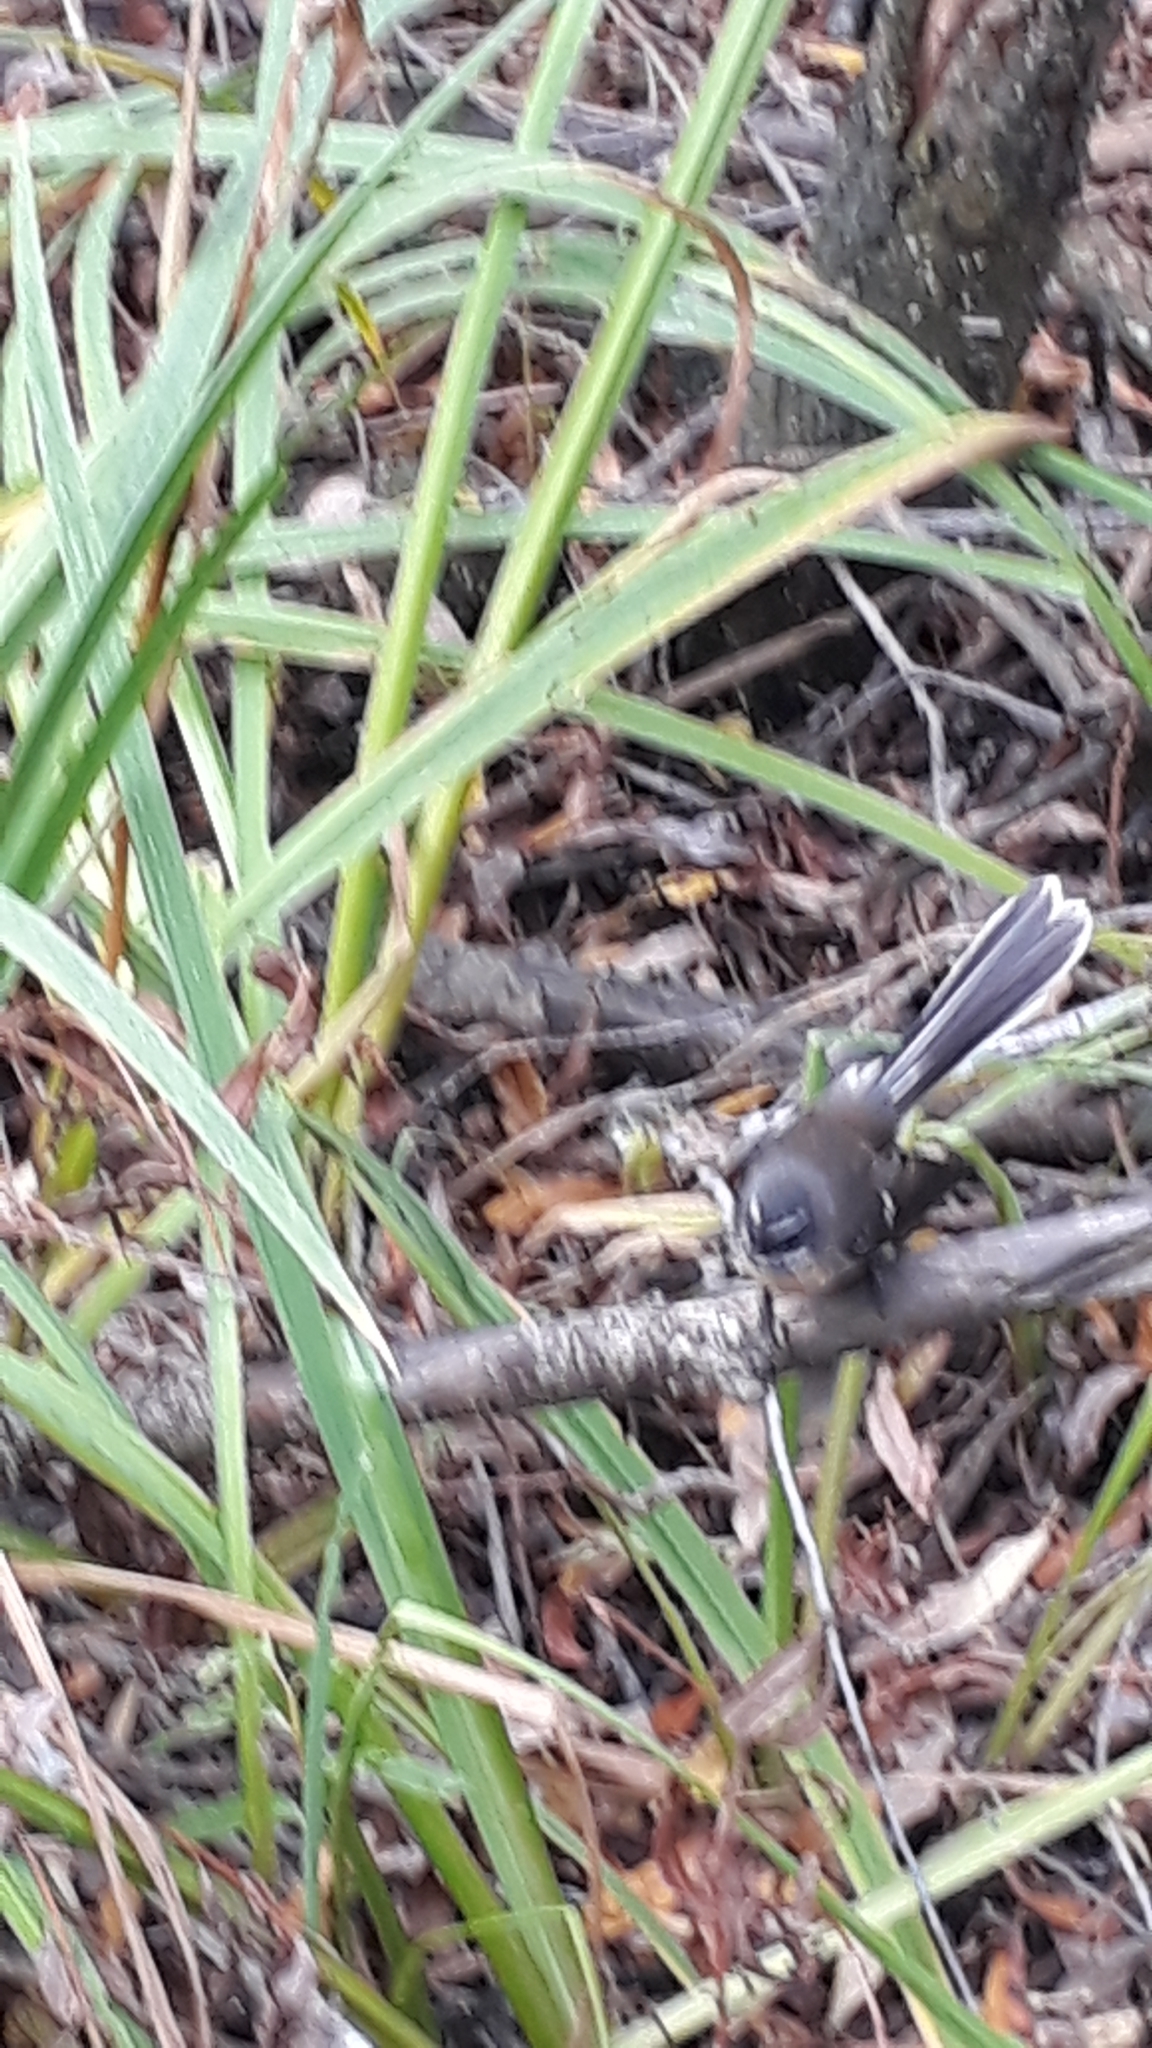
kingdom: Animalia
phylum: Chordata
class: Aves
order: Passeriformes
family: Rhipiduridae
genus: Rhipidura
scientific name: Rhipidura fuliginosa
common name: New zealand fantail
